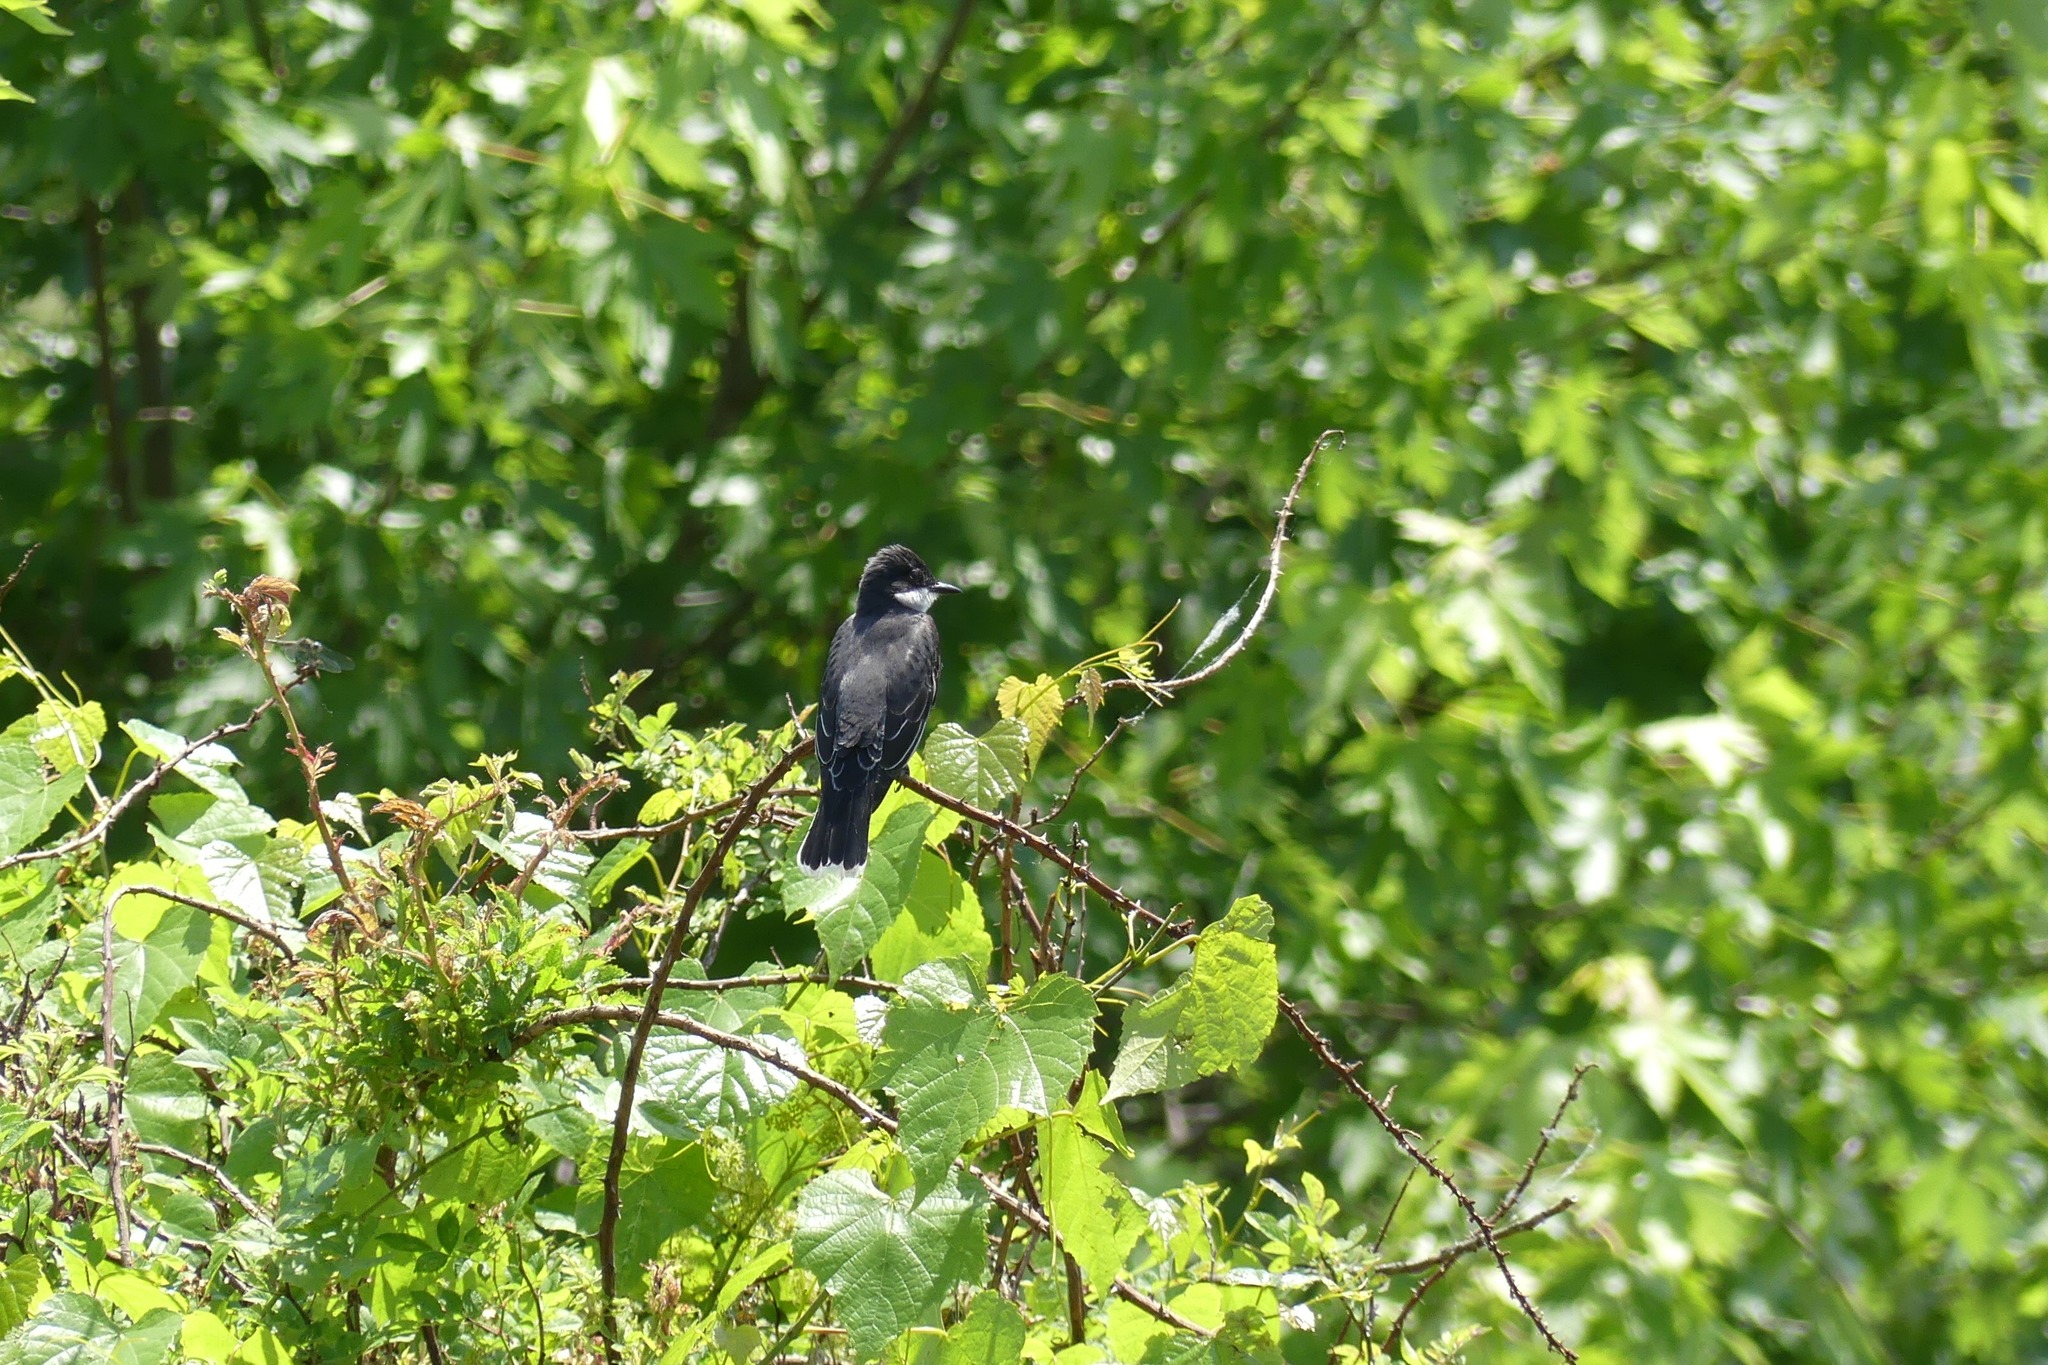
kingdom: Animalia
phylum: Chordata
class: Aves
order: Passeriformes
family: Tyrannidae
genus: Tyrannus
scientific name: Tyrannus tyrannus
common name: Eastern kingbird
